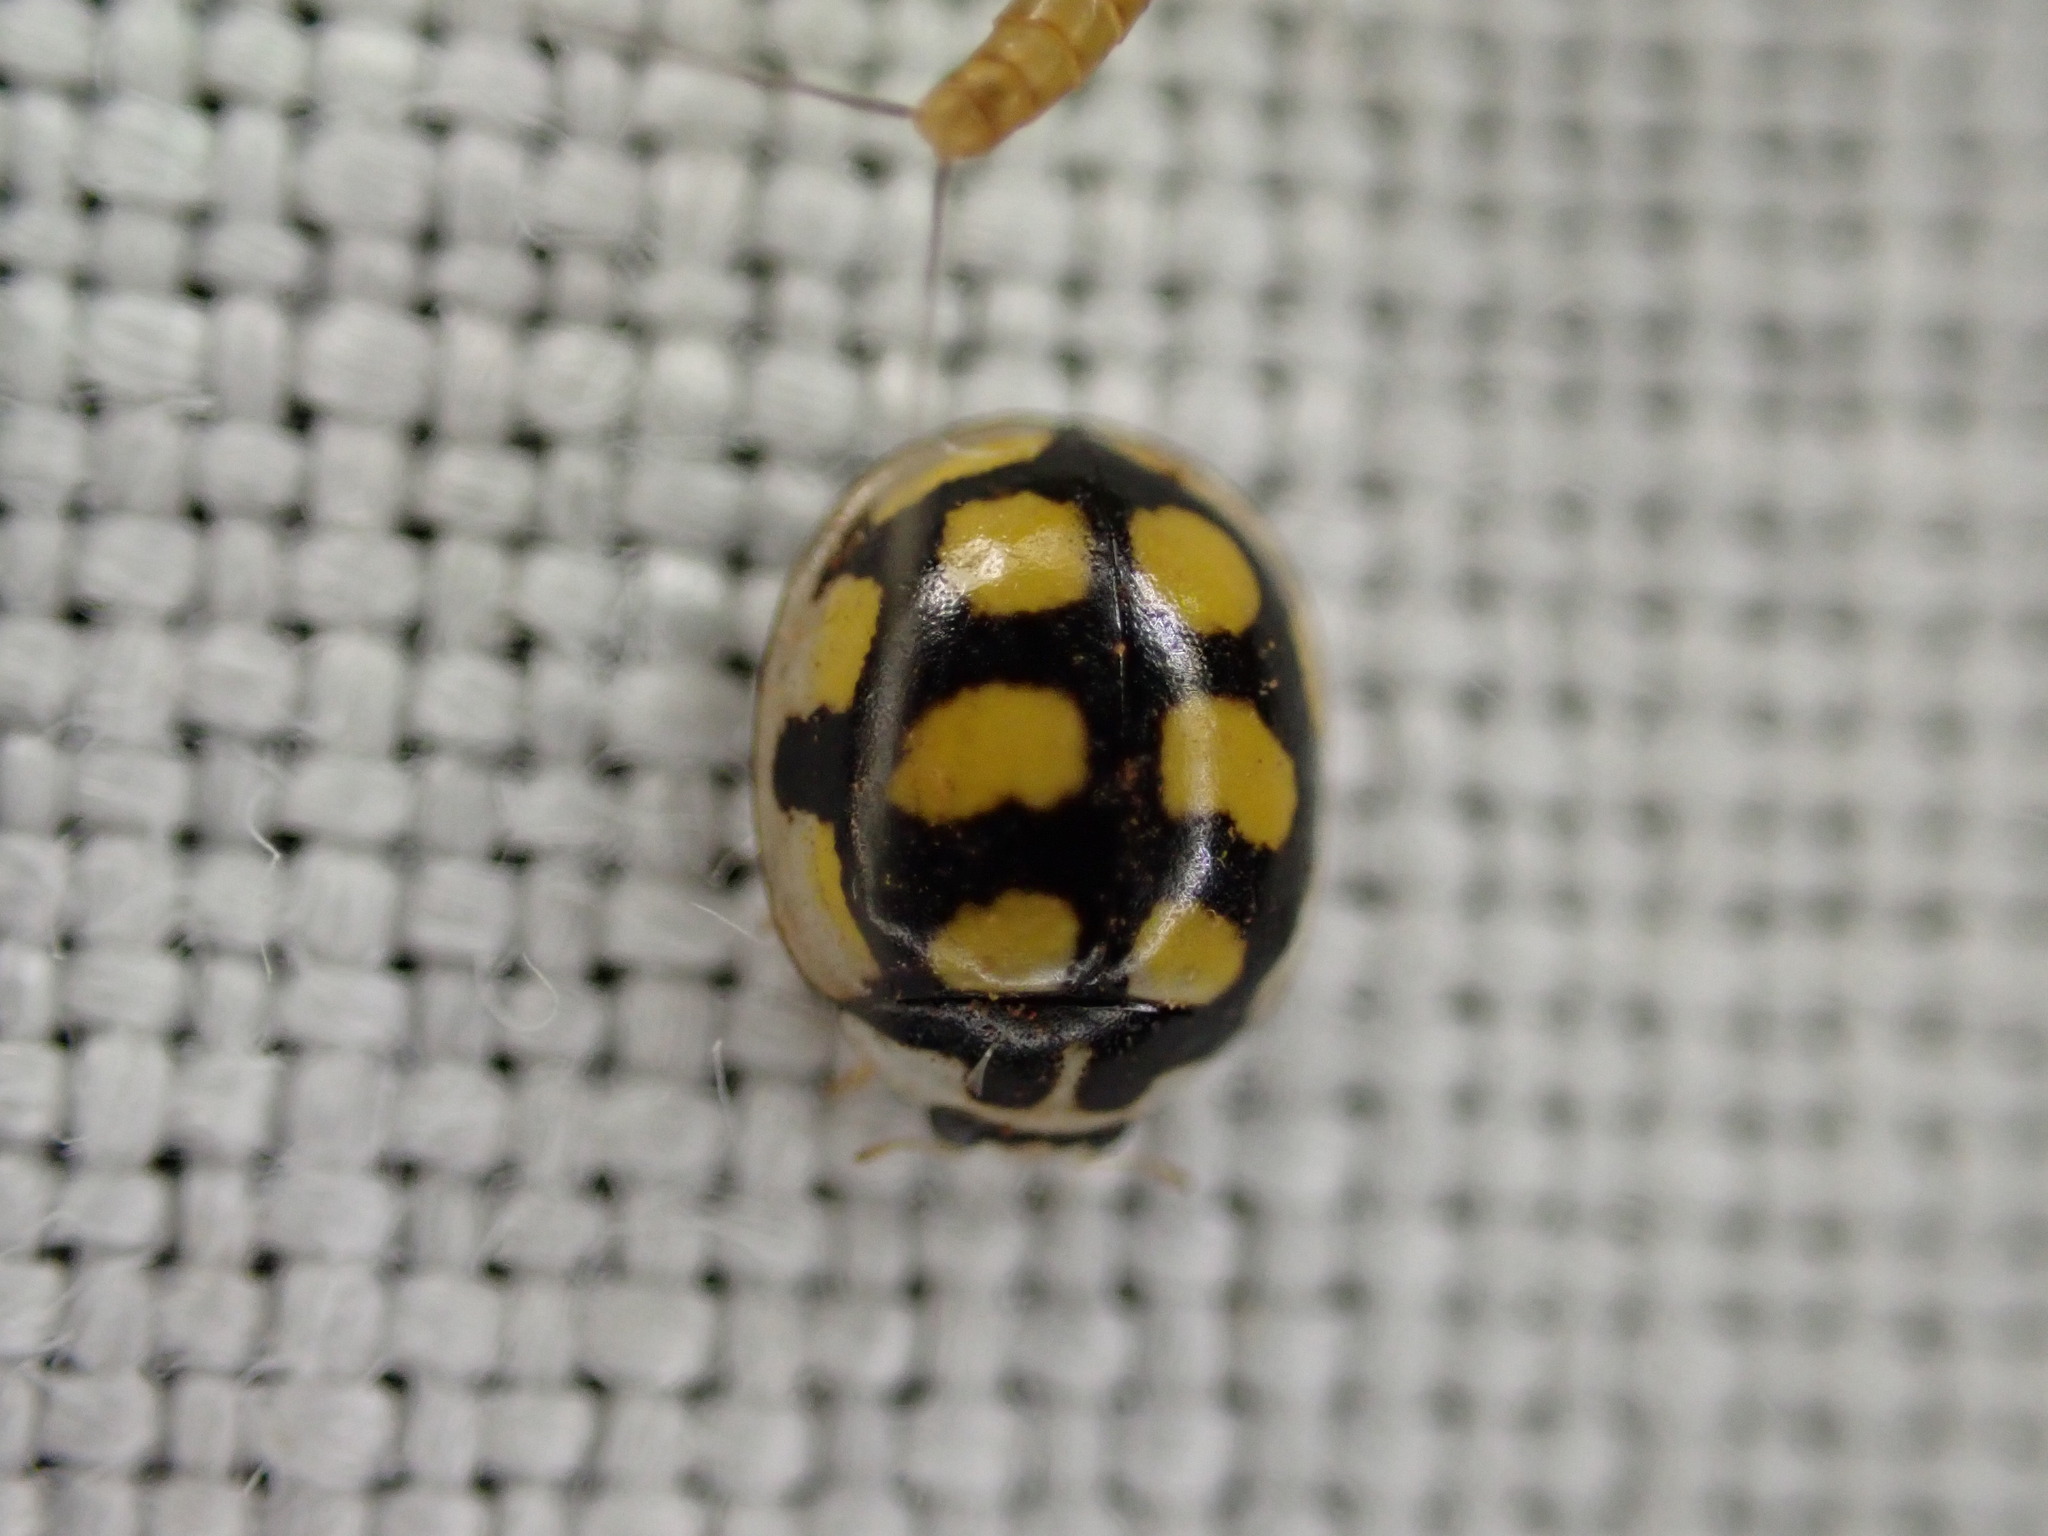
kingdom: Animalia
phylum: Arthropoda
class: Insecta
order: Coleoptera
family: Coccinellidae
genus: Oenopia
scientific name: Oenopia lyncea
